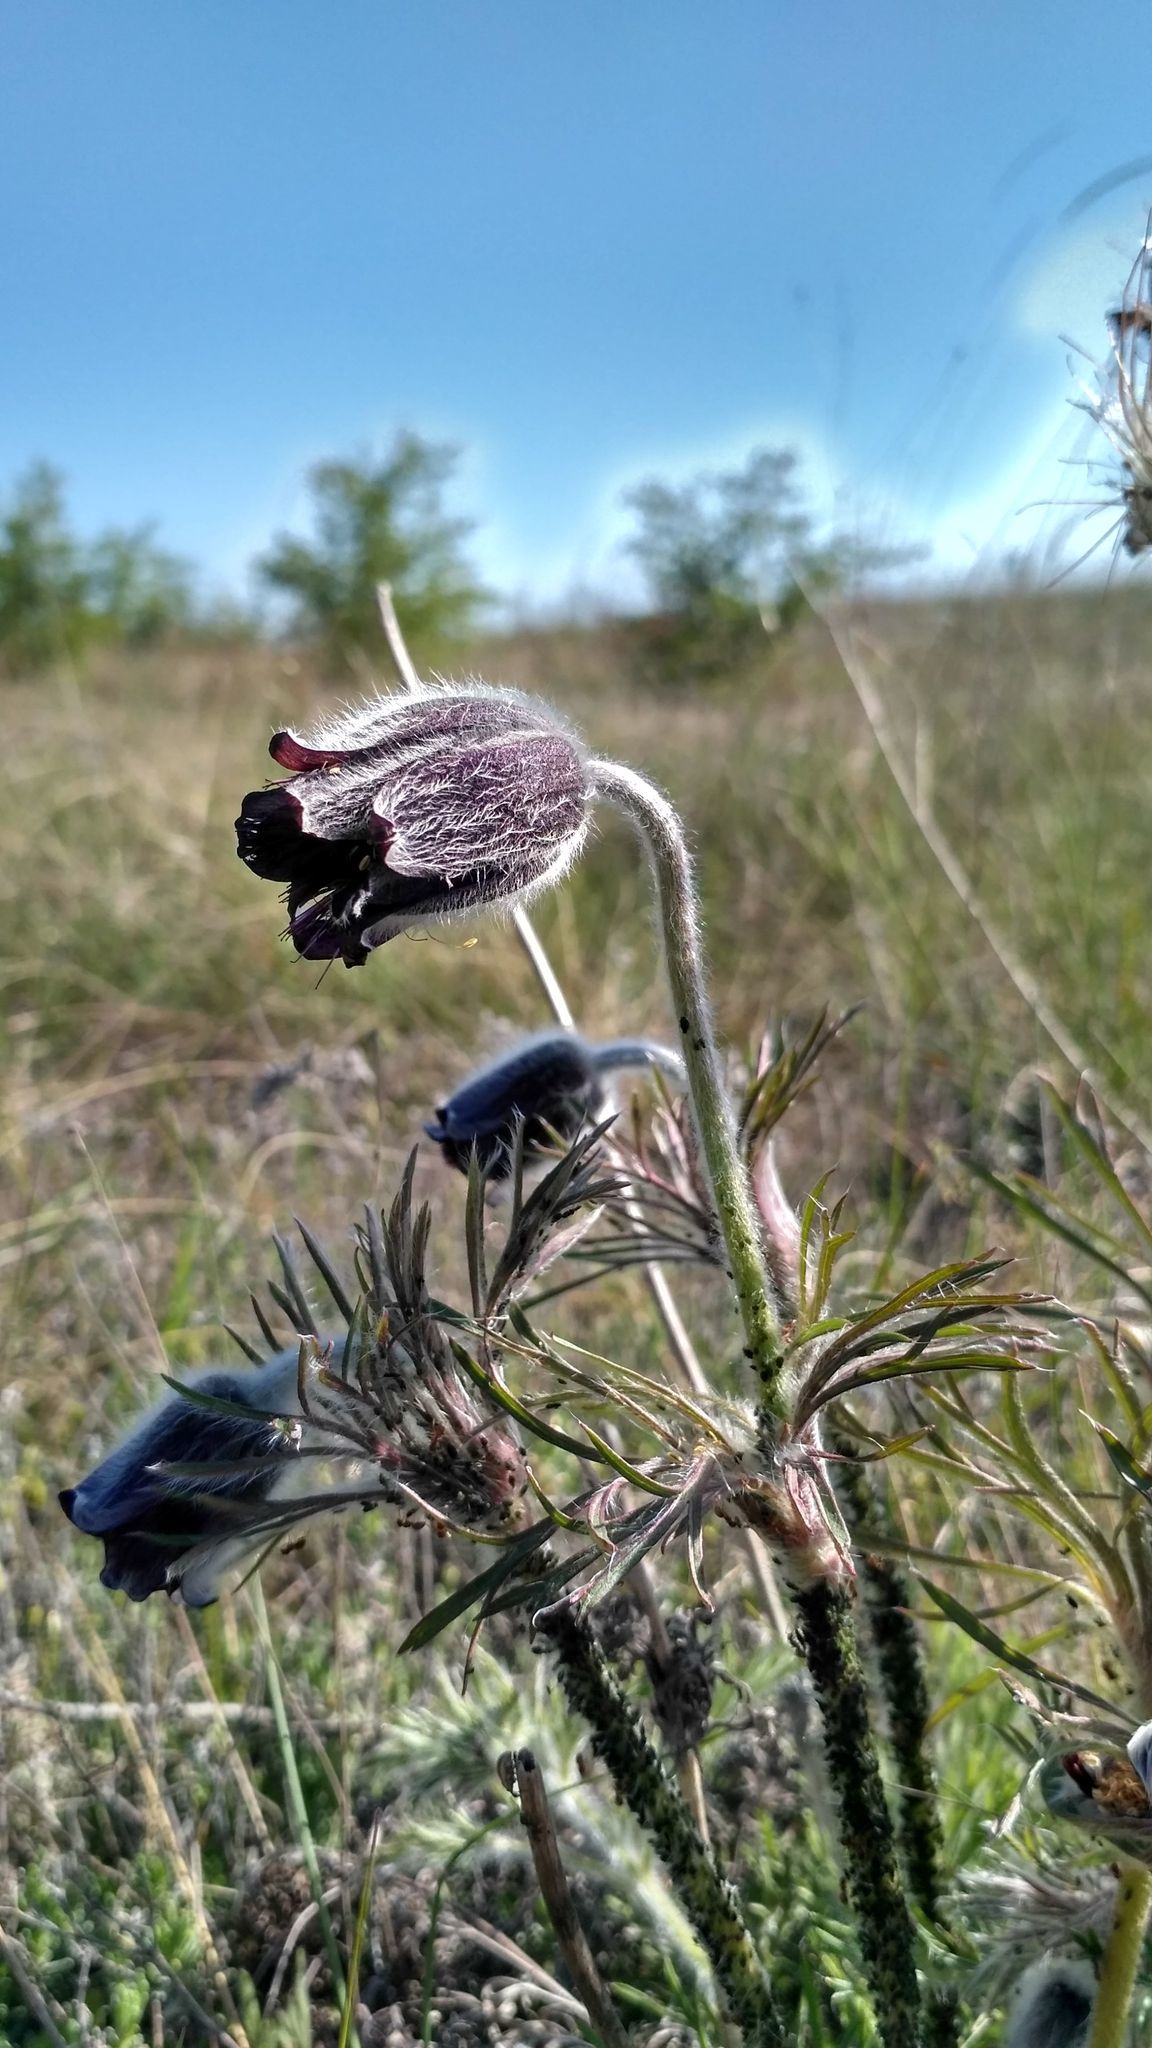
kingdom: Plantae
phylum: Tracheophyta
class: Magnoliopsida
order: Ranunculales
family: Ranunculaceae
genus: Pulsatilla
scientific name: Pulsatilla pratensis
